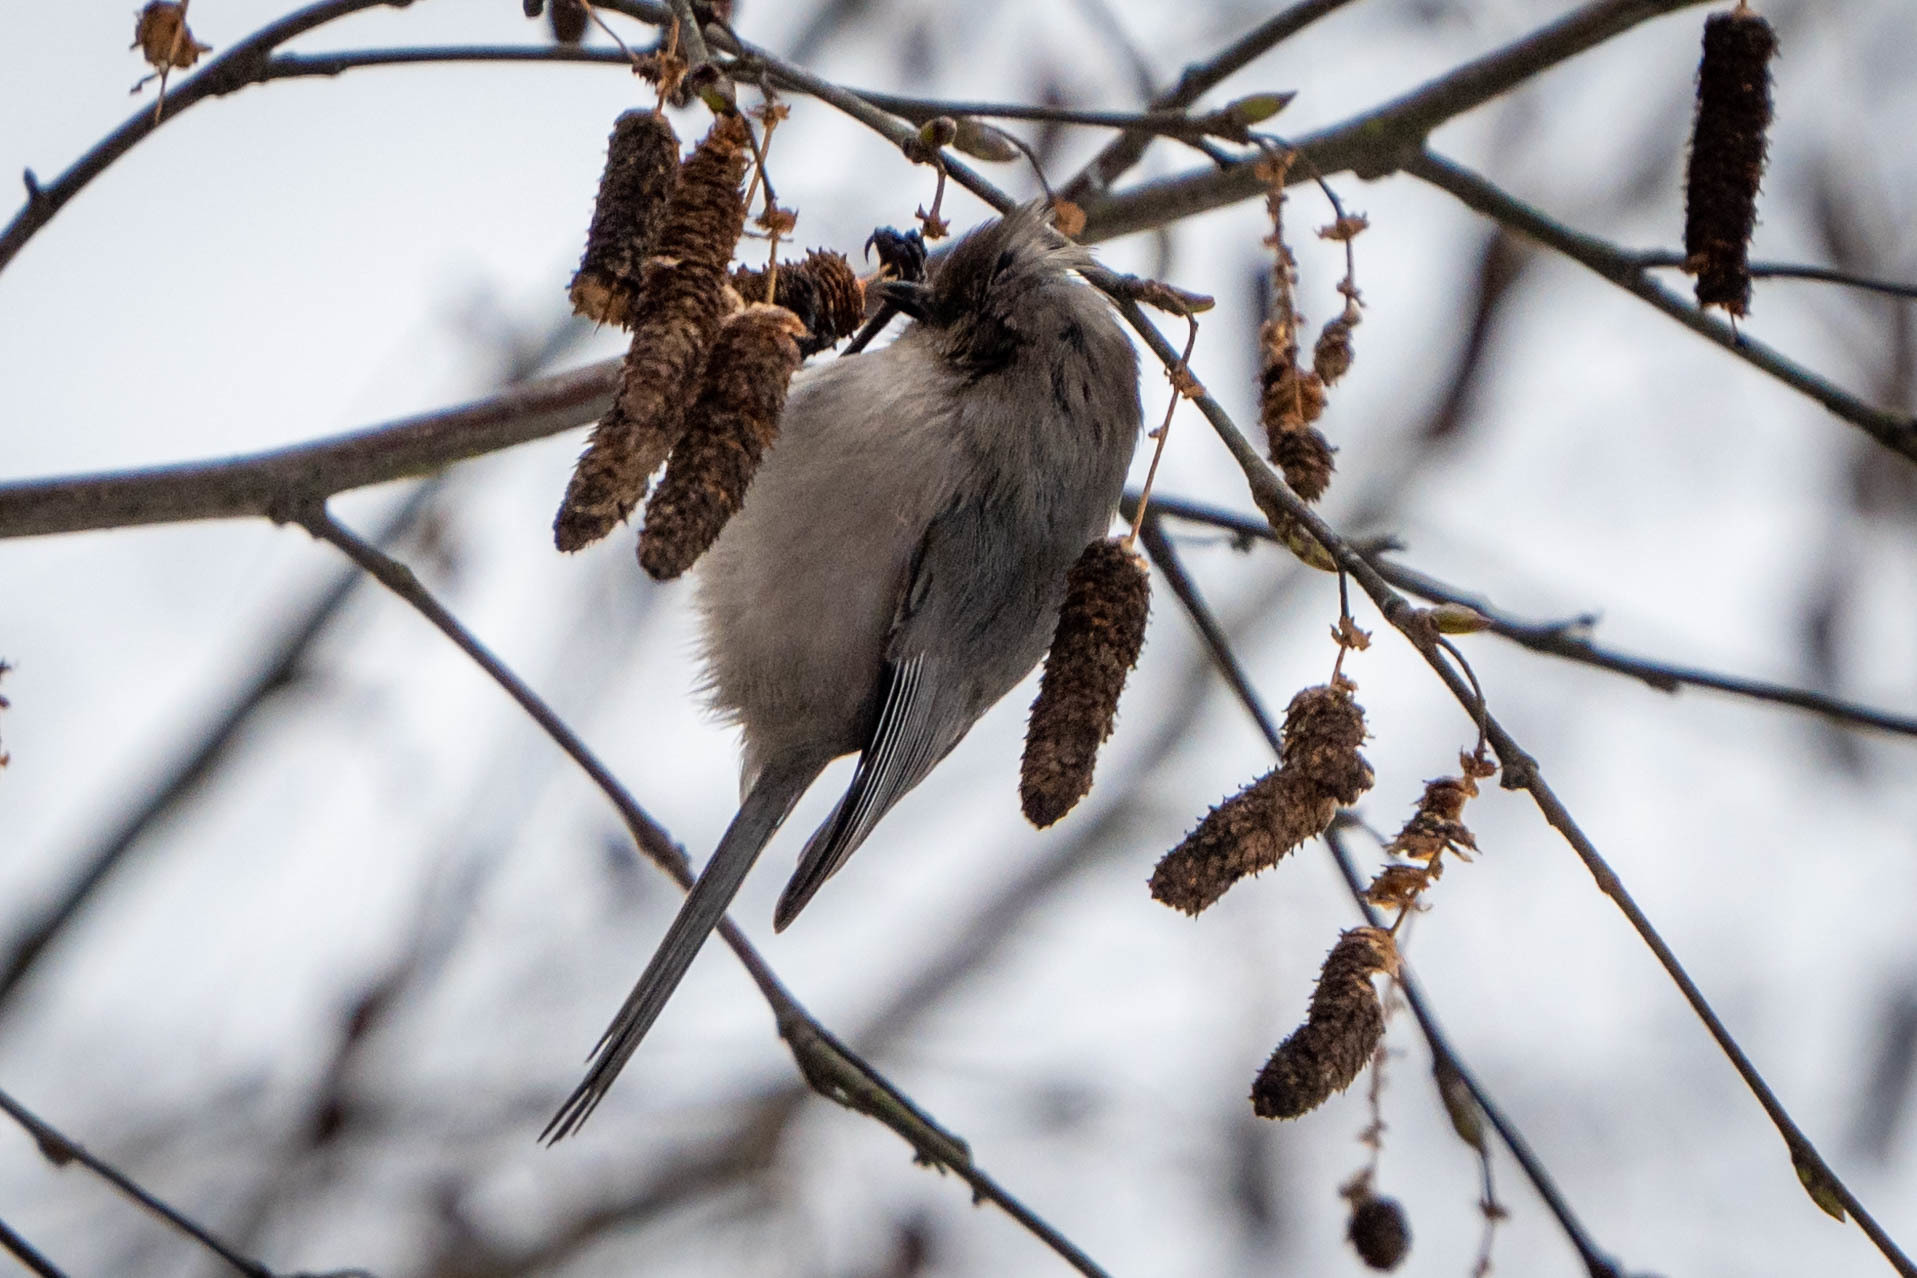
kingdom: Animalia
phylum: Chordata
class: Aves
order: Passeriformes
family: Aegithalidae
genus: Psaltriparus
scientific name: Psaltriparus minimus
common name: American bushtit
